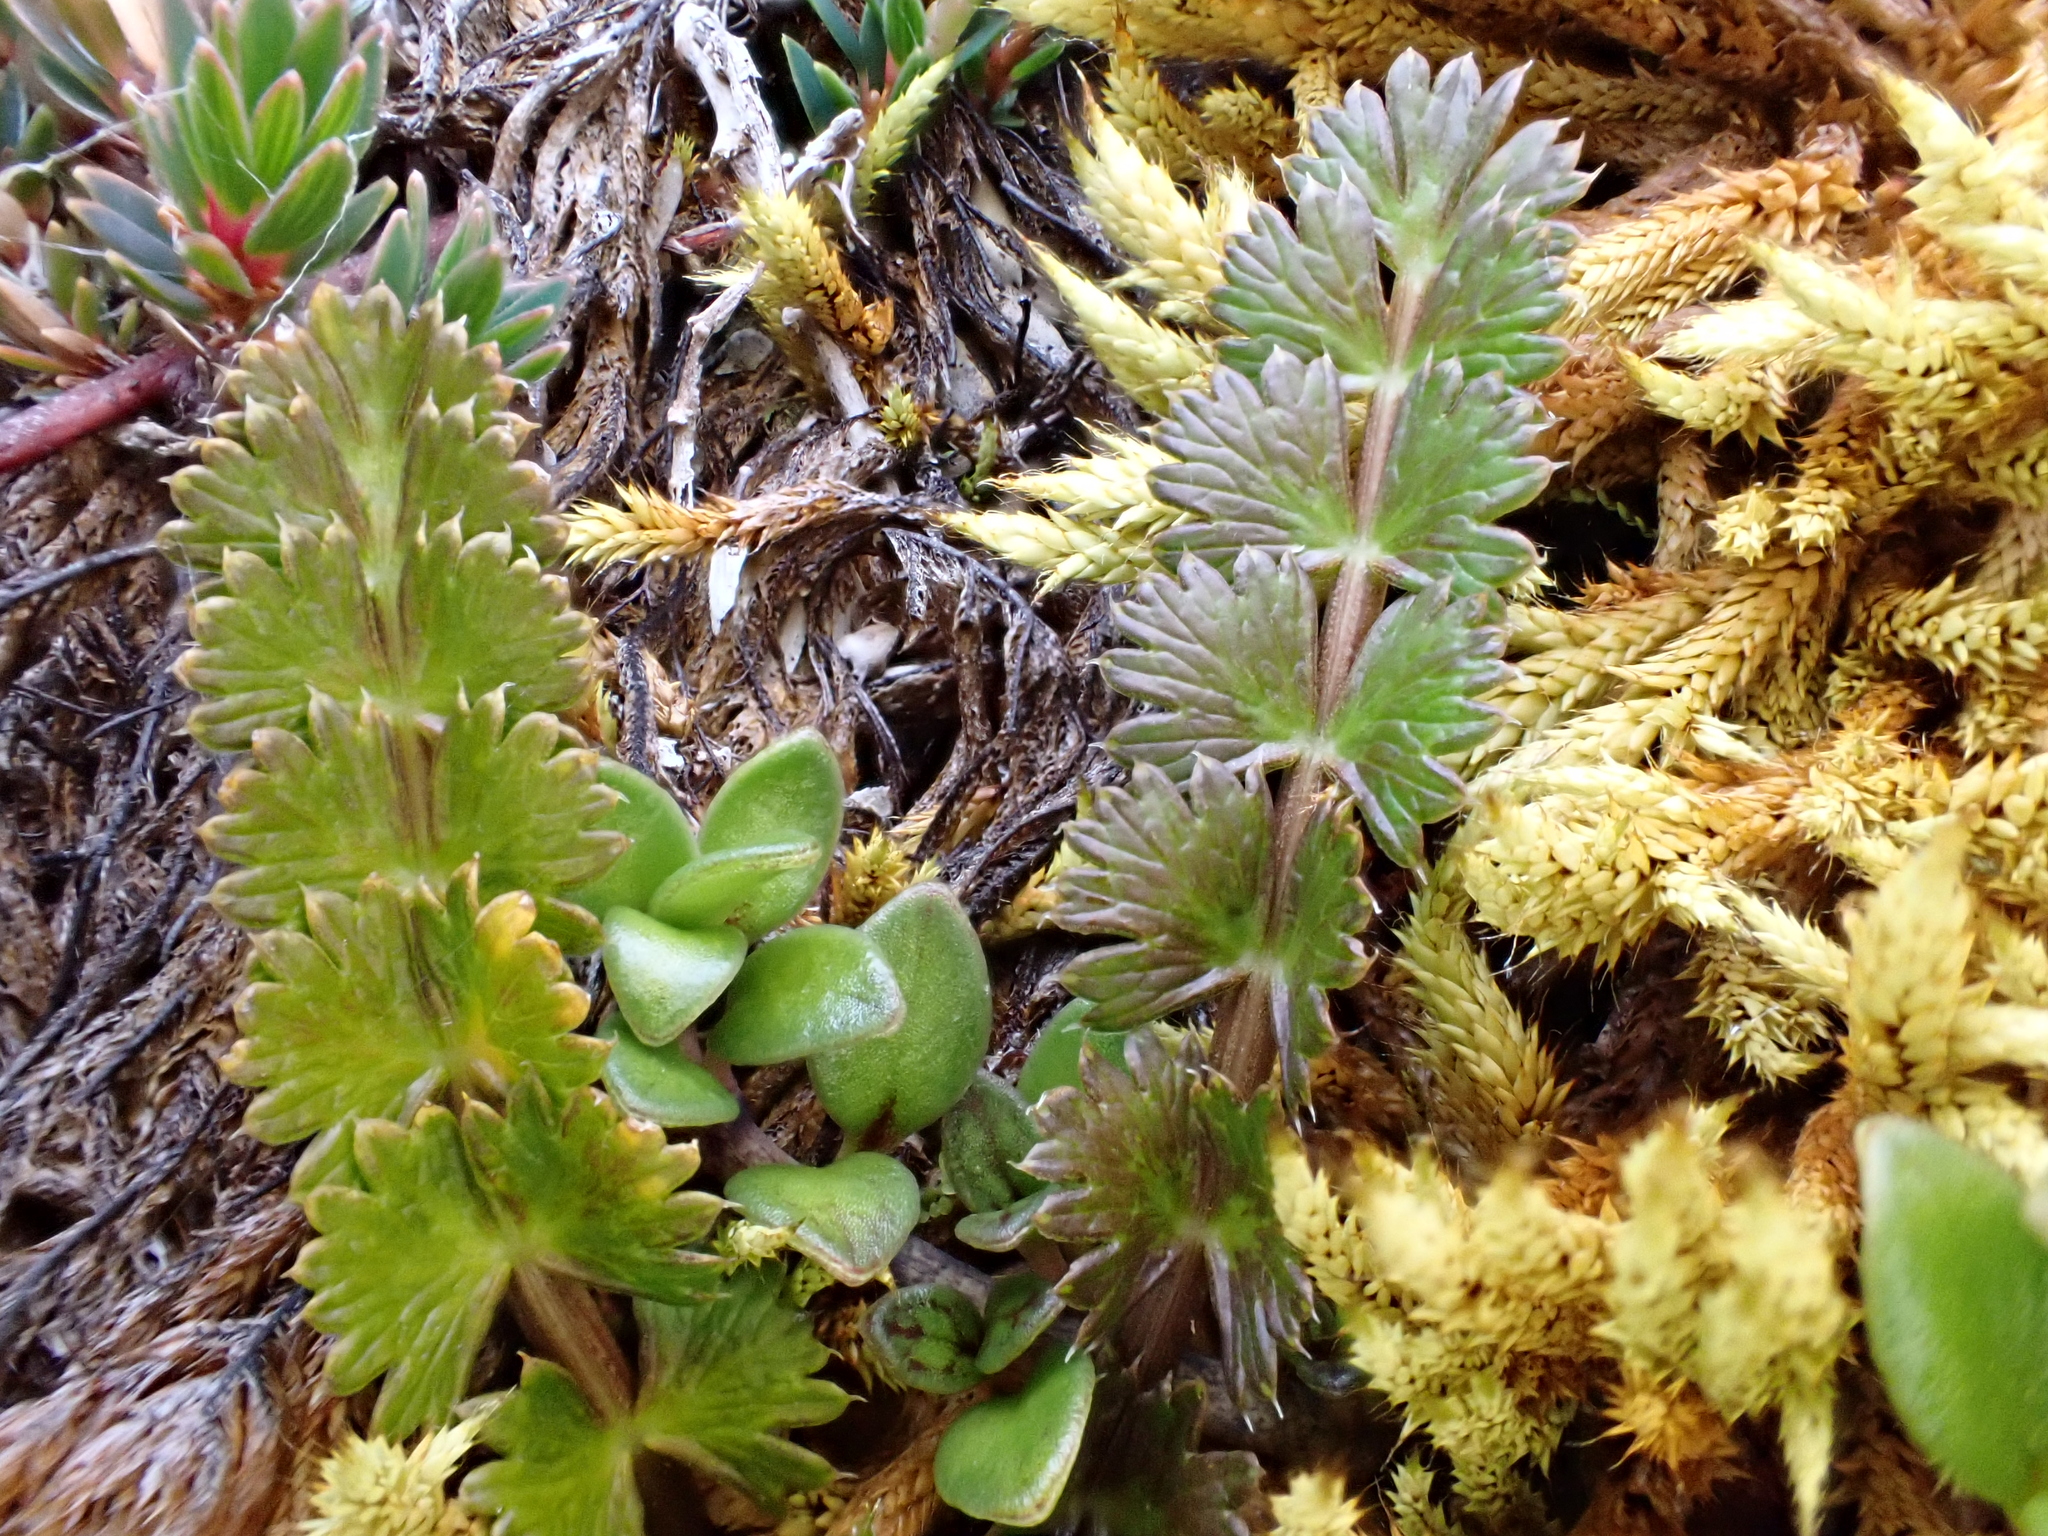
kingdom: Plantae
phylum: Tracheophyta
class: Magnoliopsida
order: Apiales
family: Apiaceae
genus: Anisotome
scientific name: Anisotome aromatica
